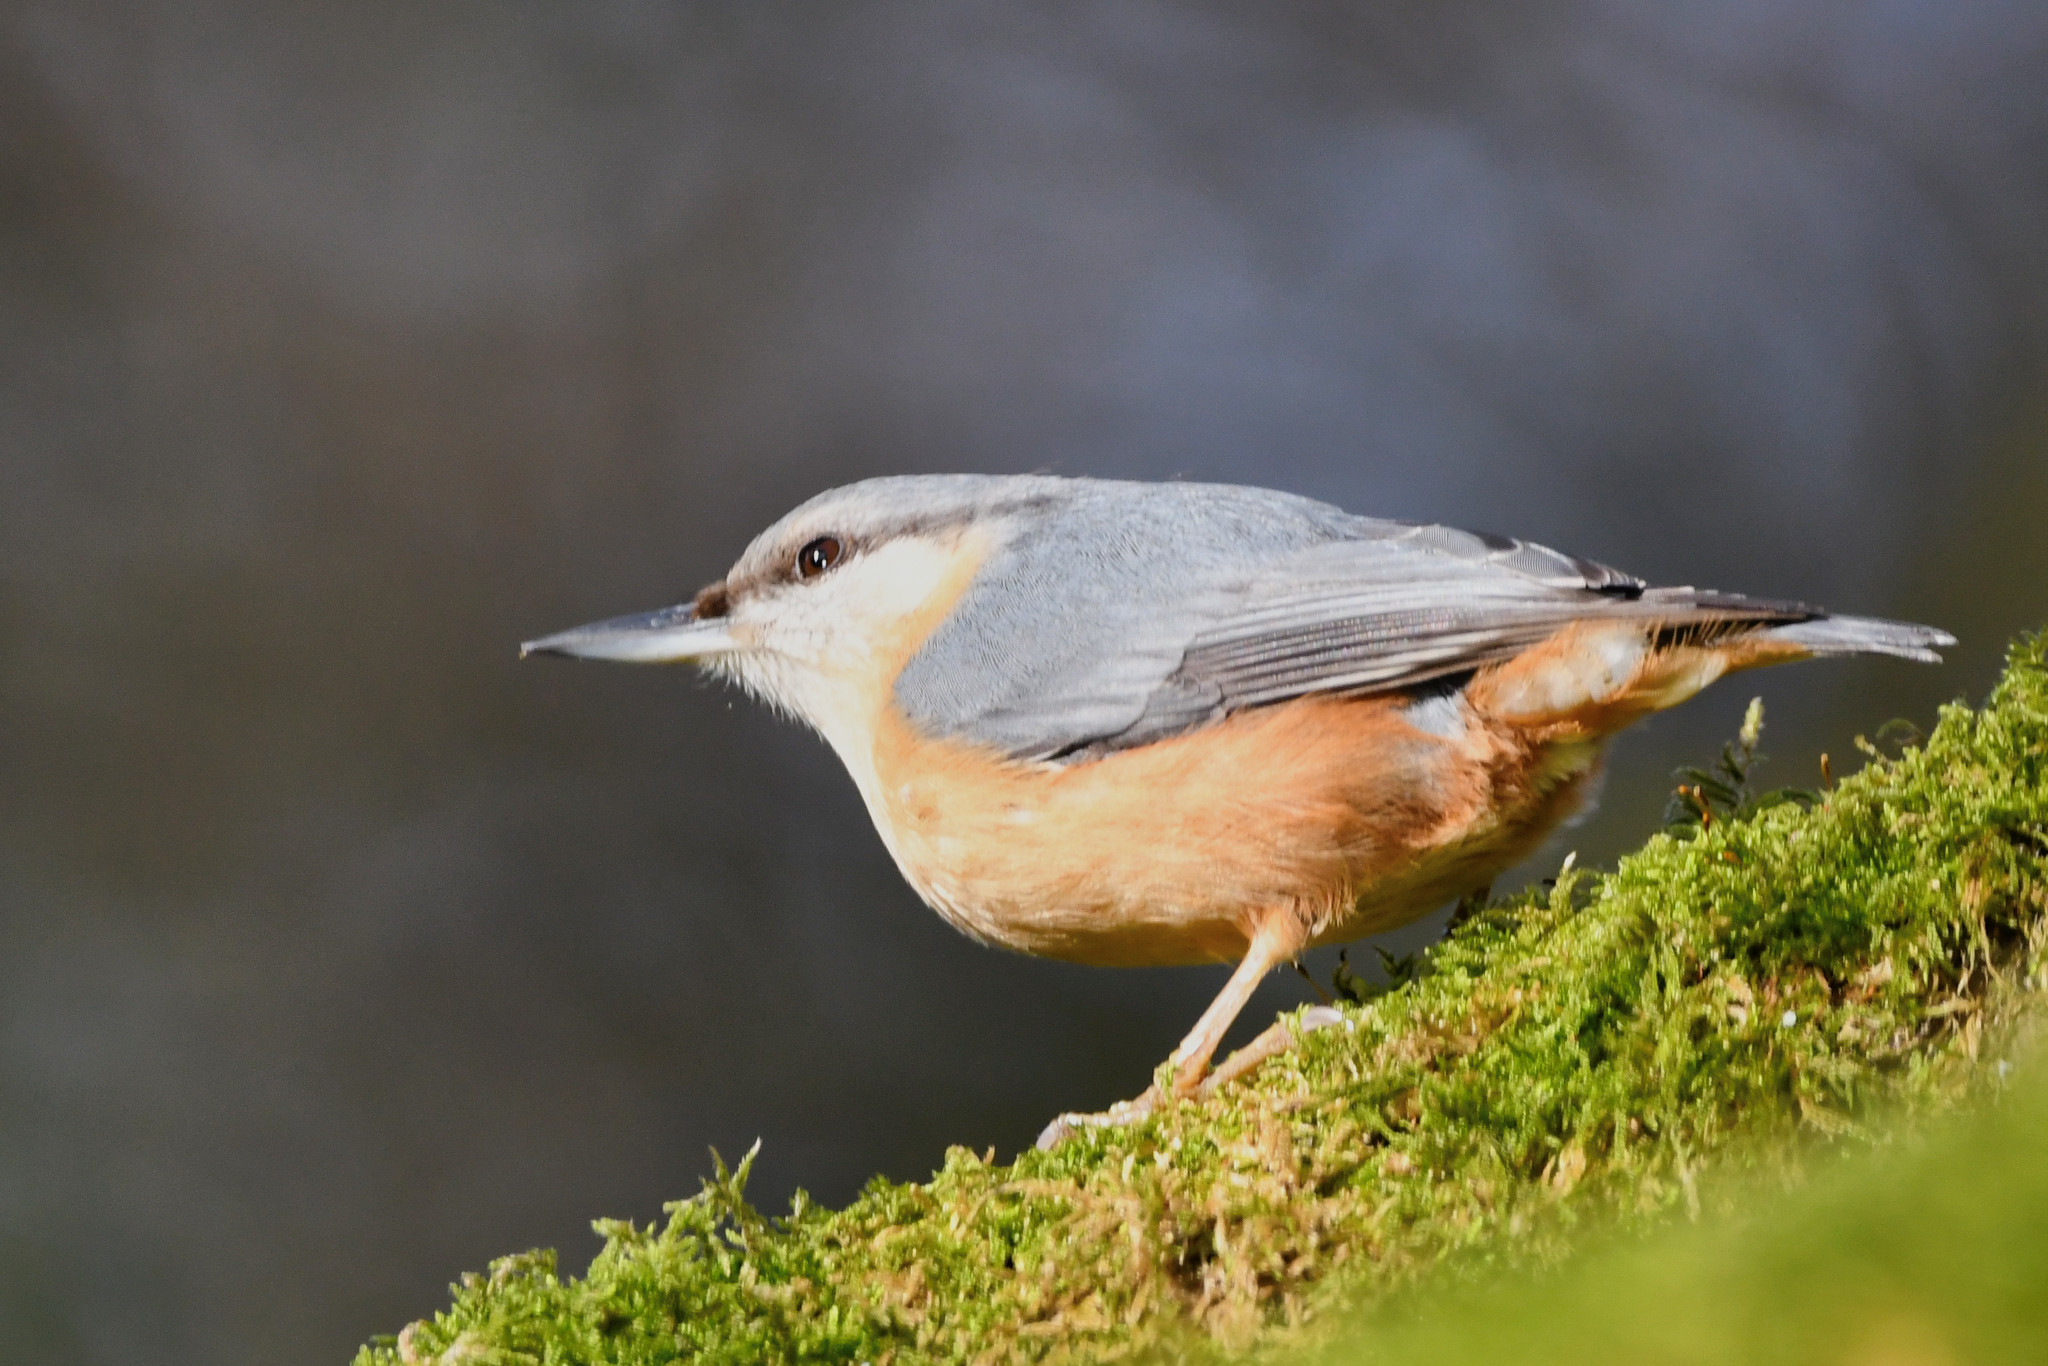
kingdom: Animalia
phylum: Chordata
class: Aves
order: Passeriformes
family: Sittidae
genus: Sitta
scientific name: Sitta europaea
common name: Eurasian nuthatch
